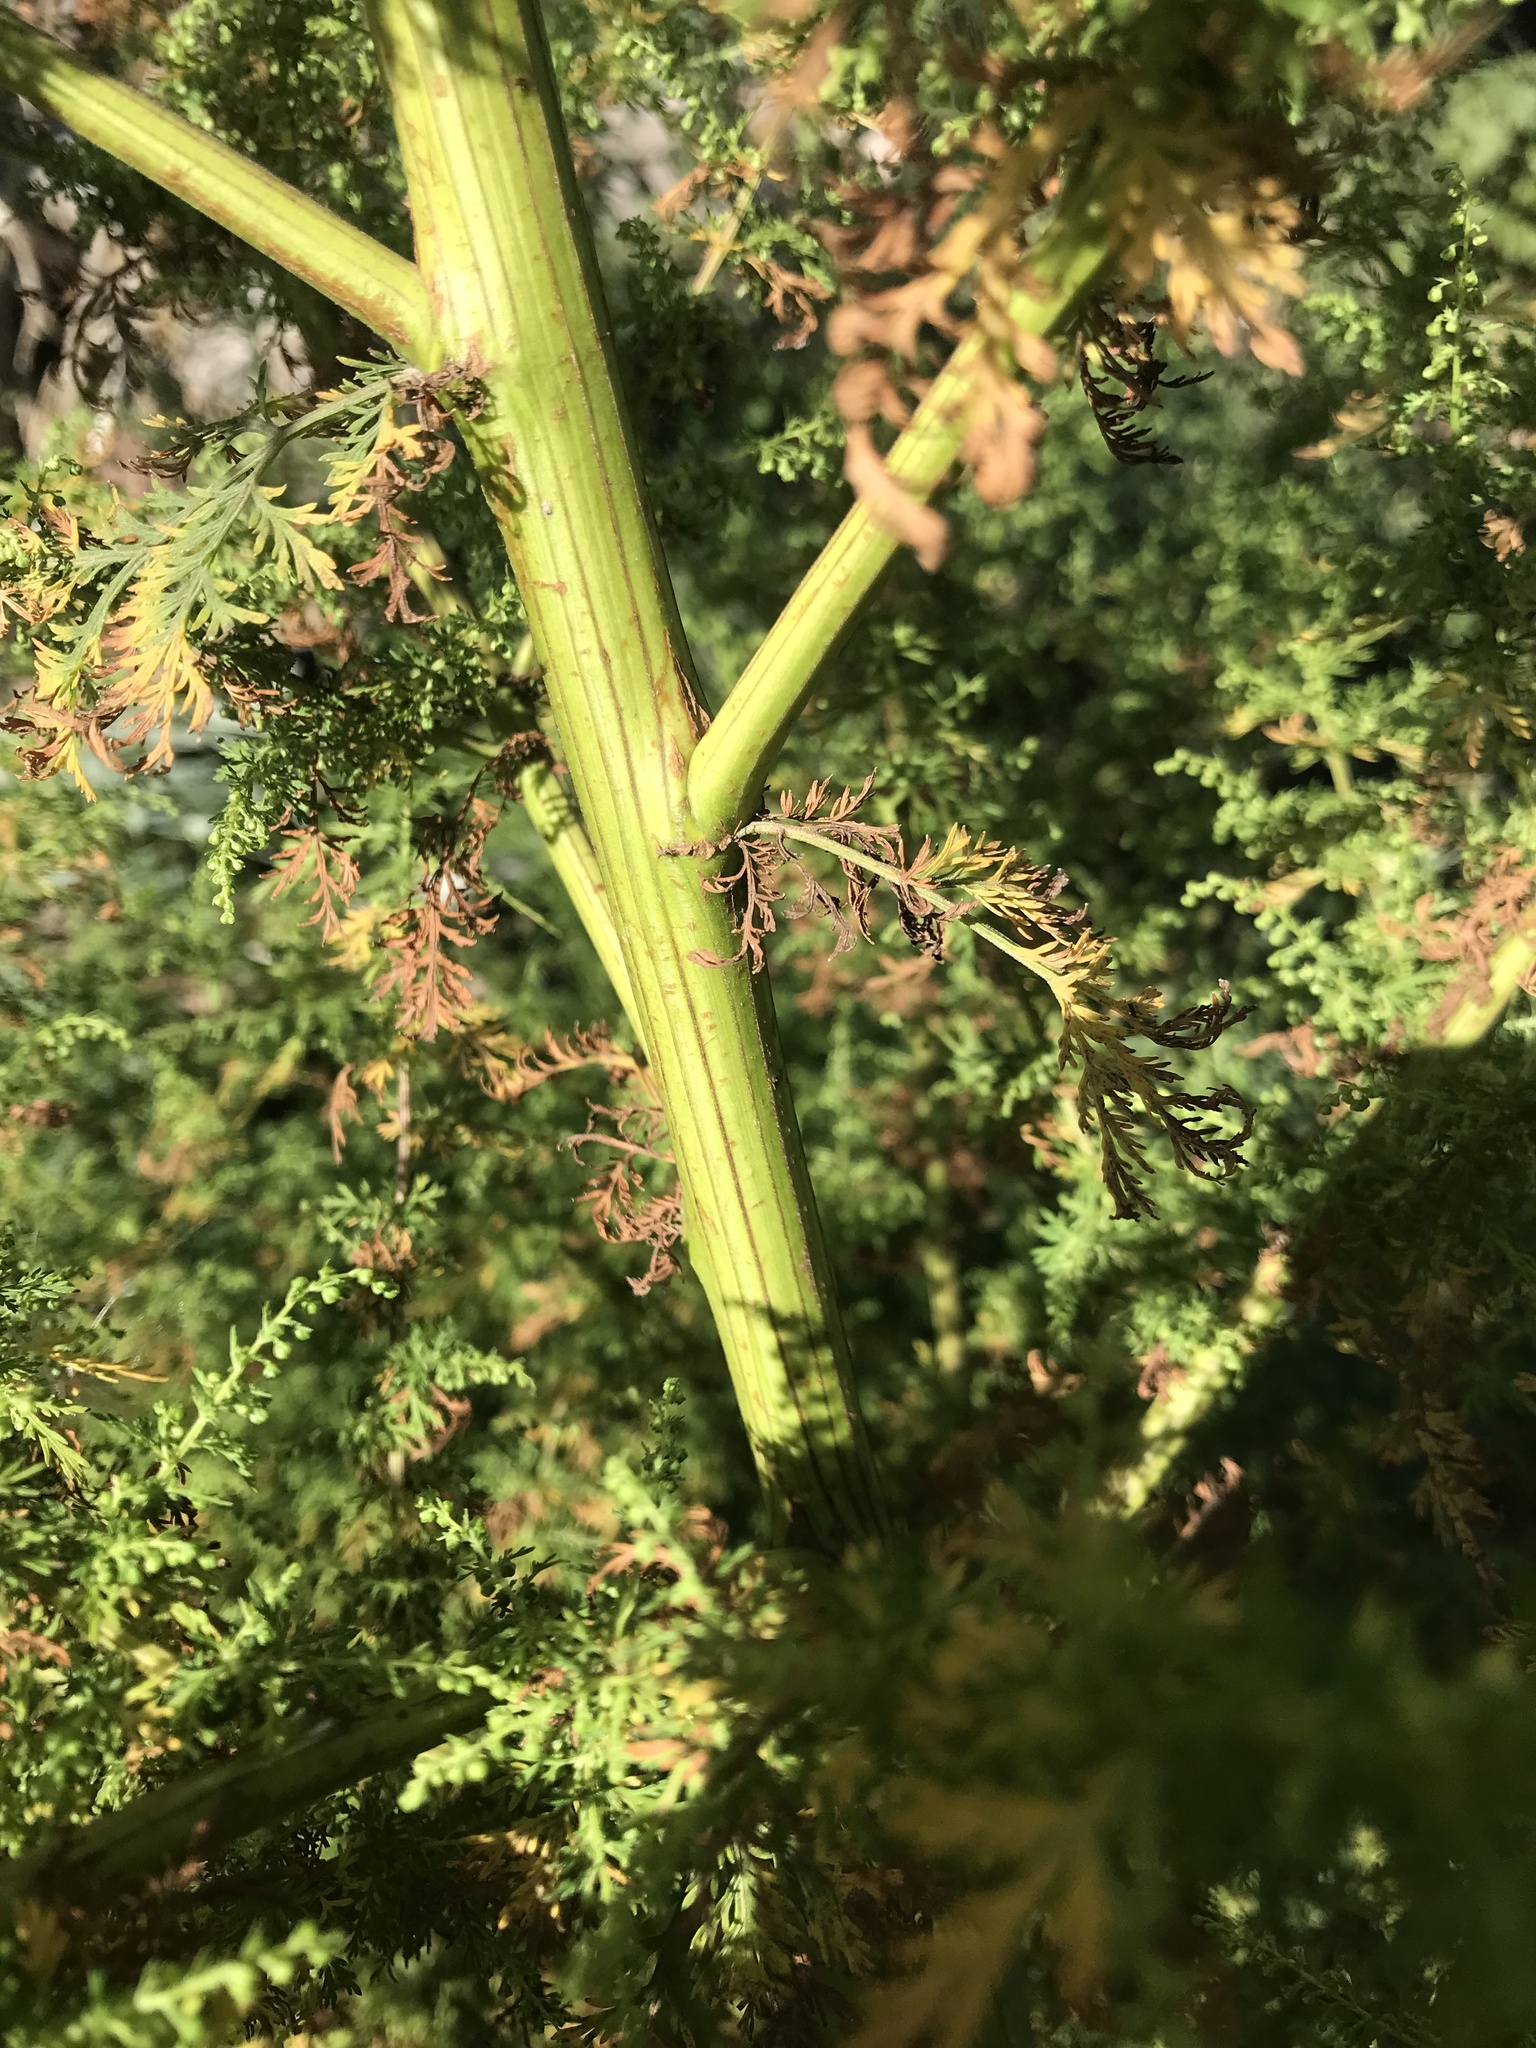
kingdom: Plantae
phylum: Tracheophyta
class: Magnoliopsida
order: Asterales
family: Asteraceae
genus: Artemisia
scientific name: Artemisia annua
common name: Sweet sagewort
